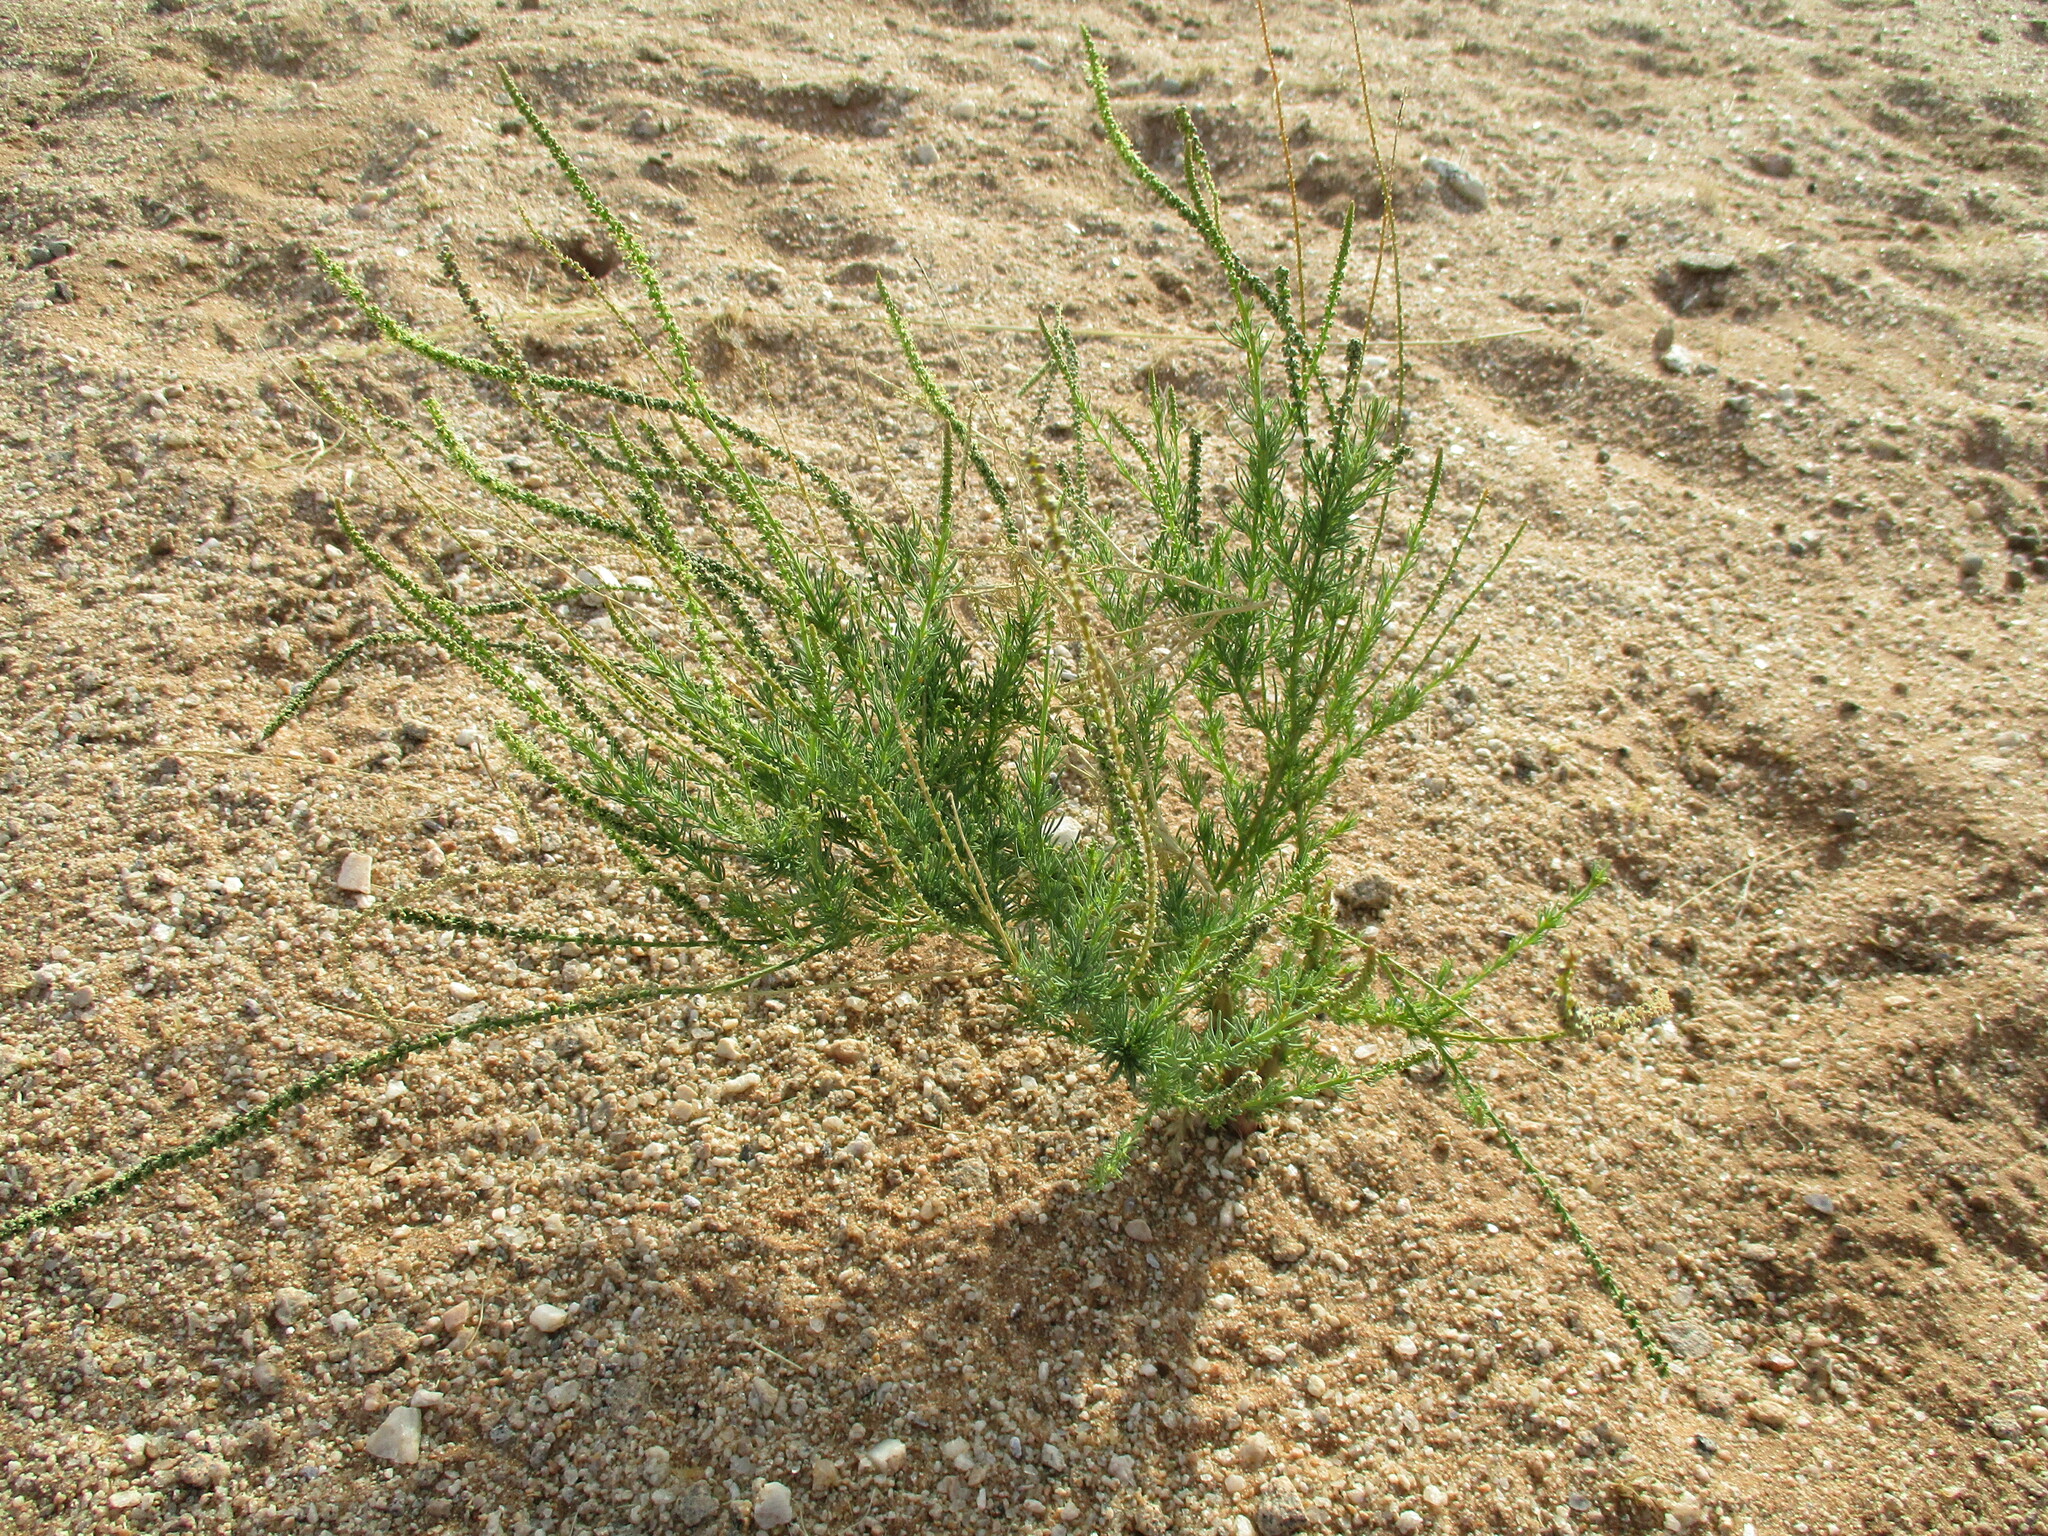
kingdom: Plantae
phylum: Tracheophyta
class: Magnoliopsida
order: Caryophyllales
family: Lophiocarpaceae
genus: Lophiocarpus
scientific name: Lophiocarpus polystachyus
